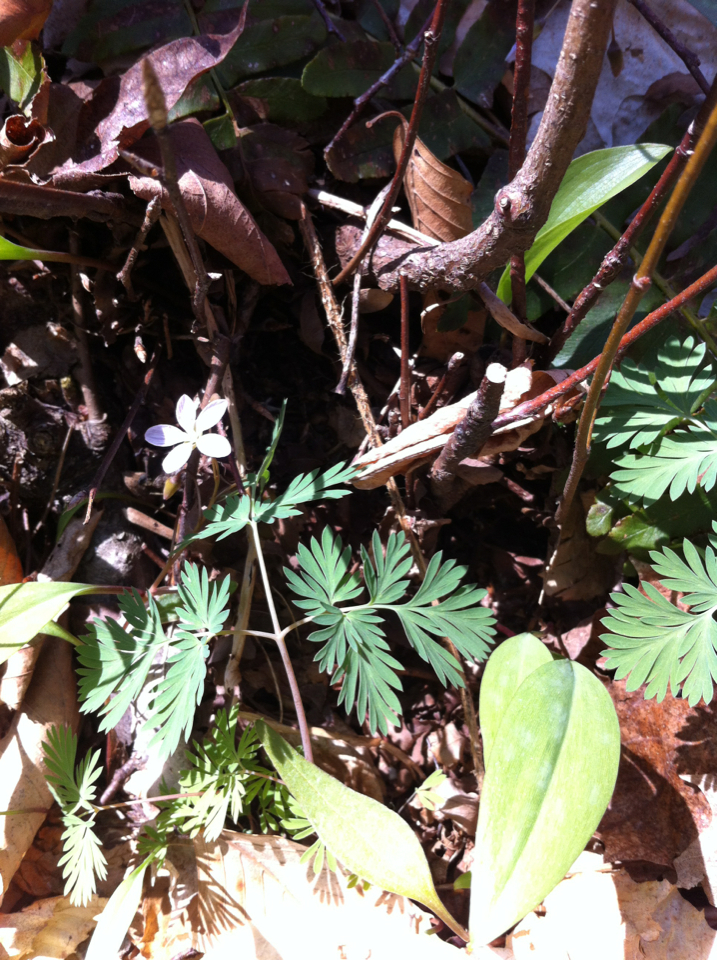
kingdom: Plantae
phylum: Tracheophyta
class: Magnoliopsida
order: Caryophyllales
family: Montiaceae
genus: Claytonia
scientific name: Claytonia caroliniana
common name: Carolina spring beauty
